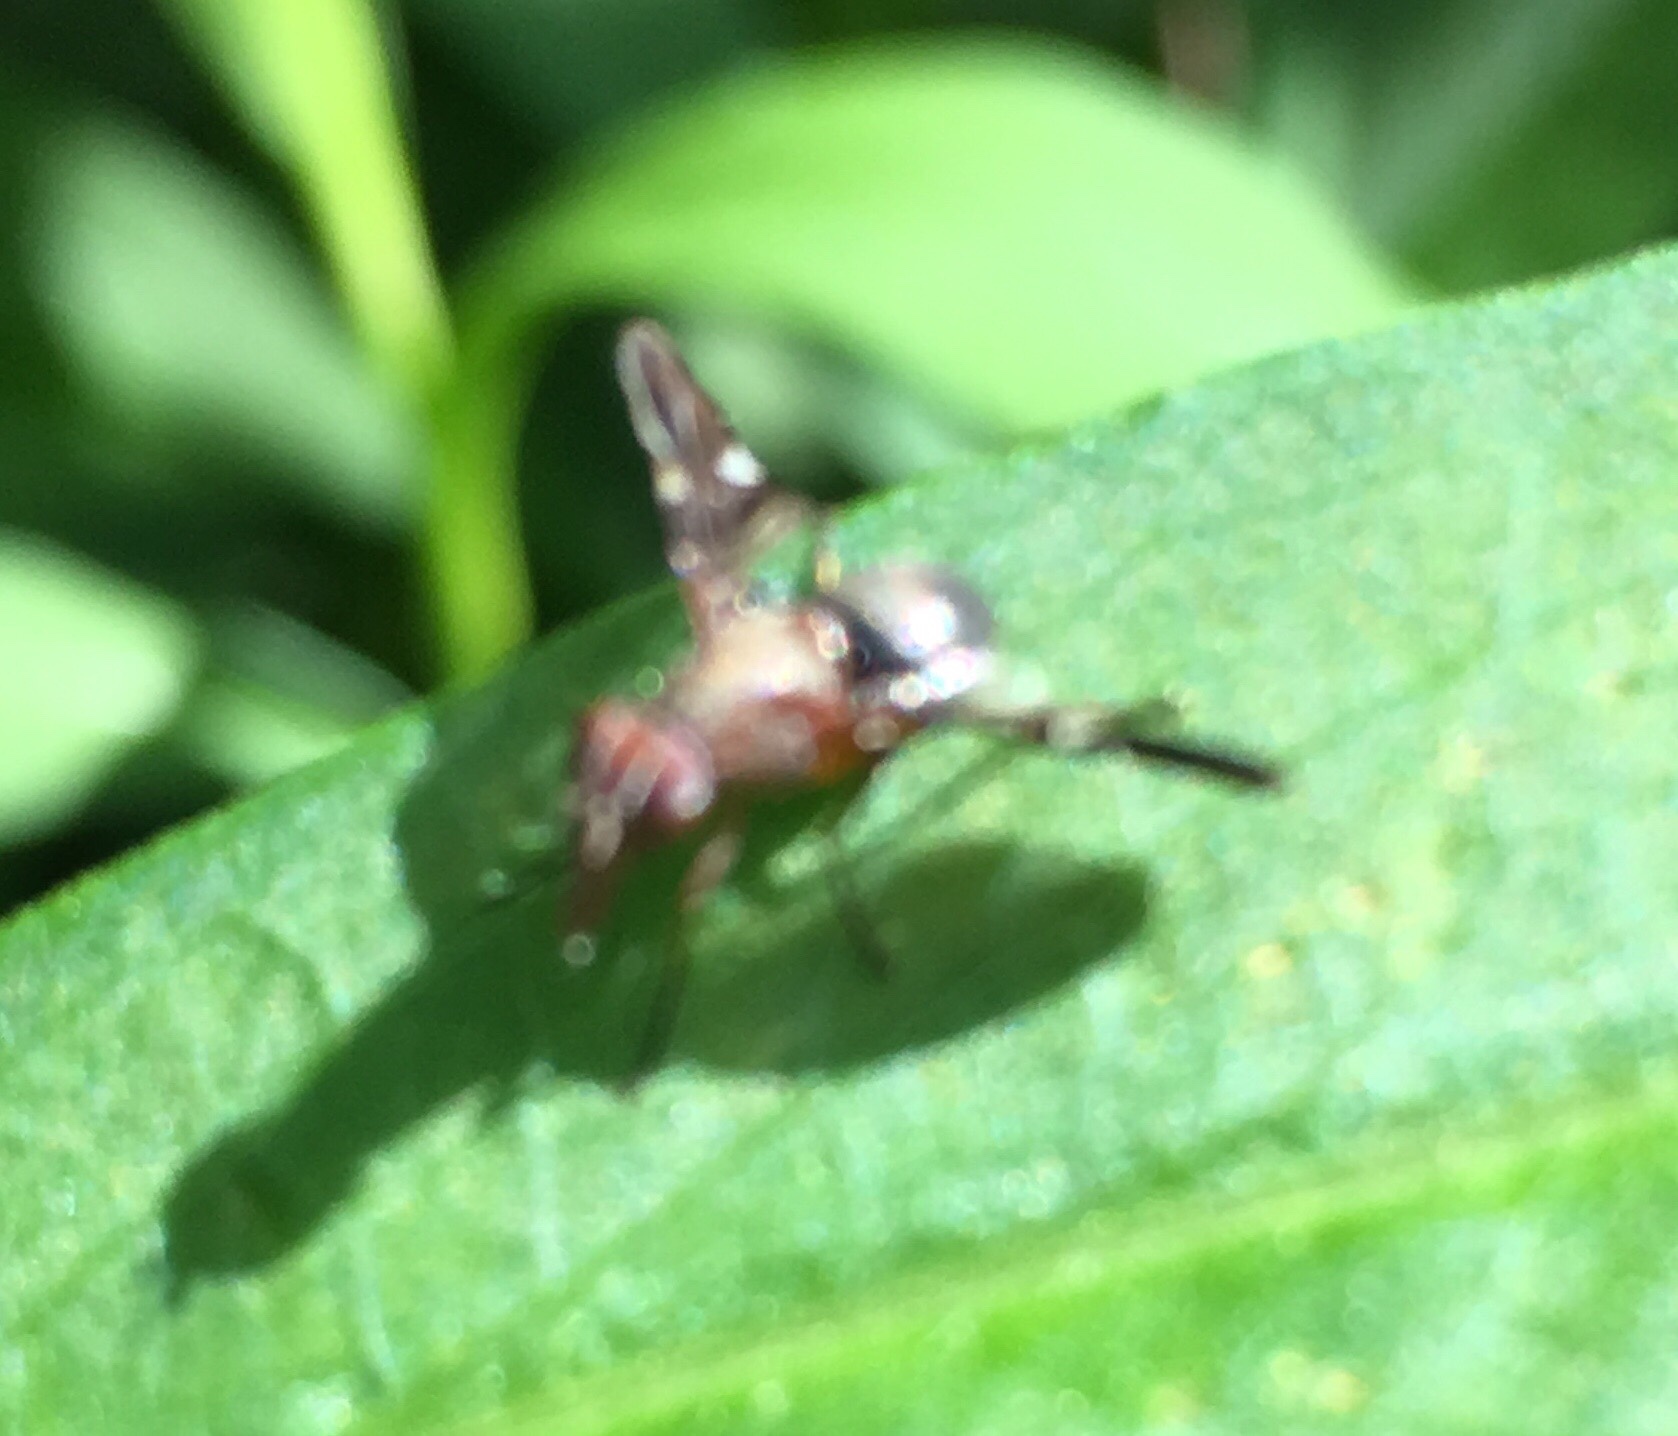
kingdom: Animalia
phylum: Arthropoda
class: Insecta
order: Diptera
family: Ulidiidae
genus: Delphinia
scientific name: Delphinia picta
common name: Common picture-winged fly
